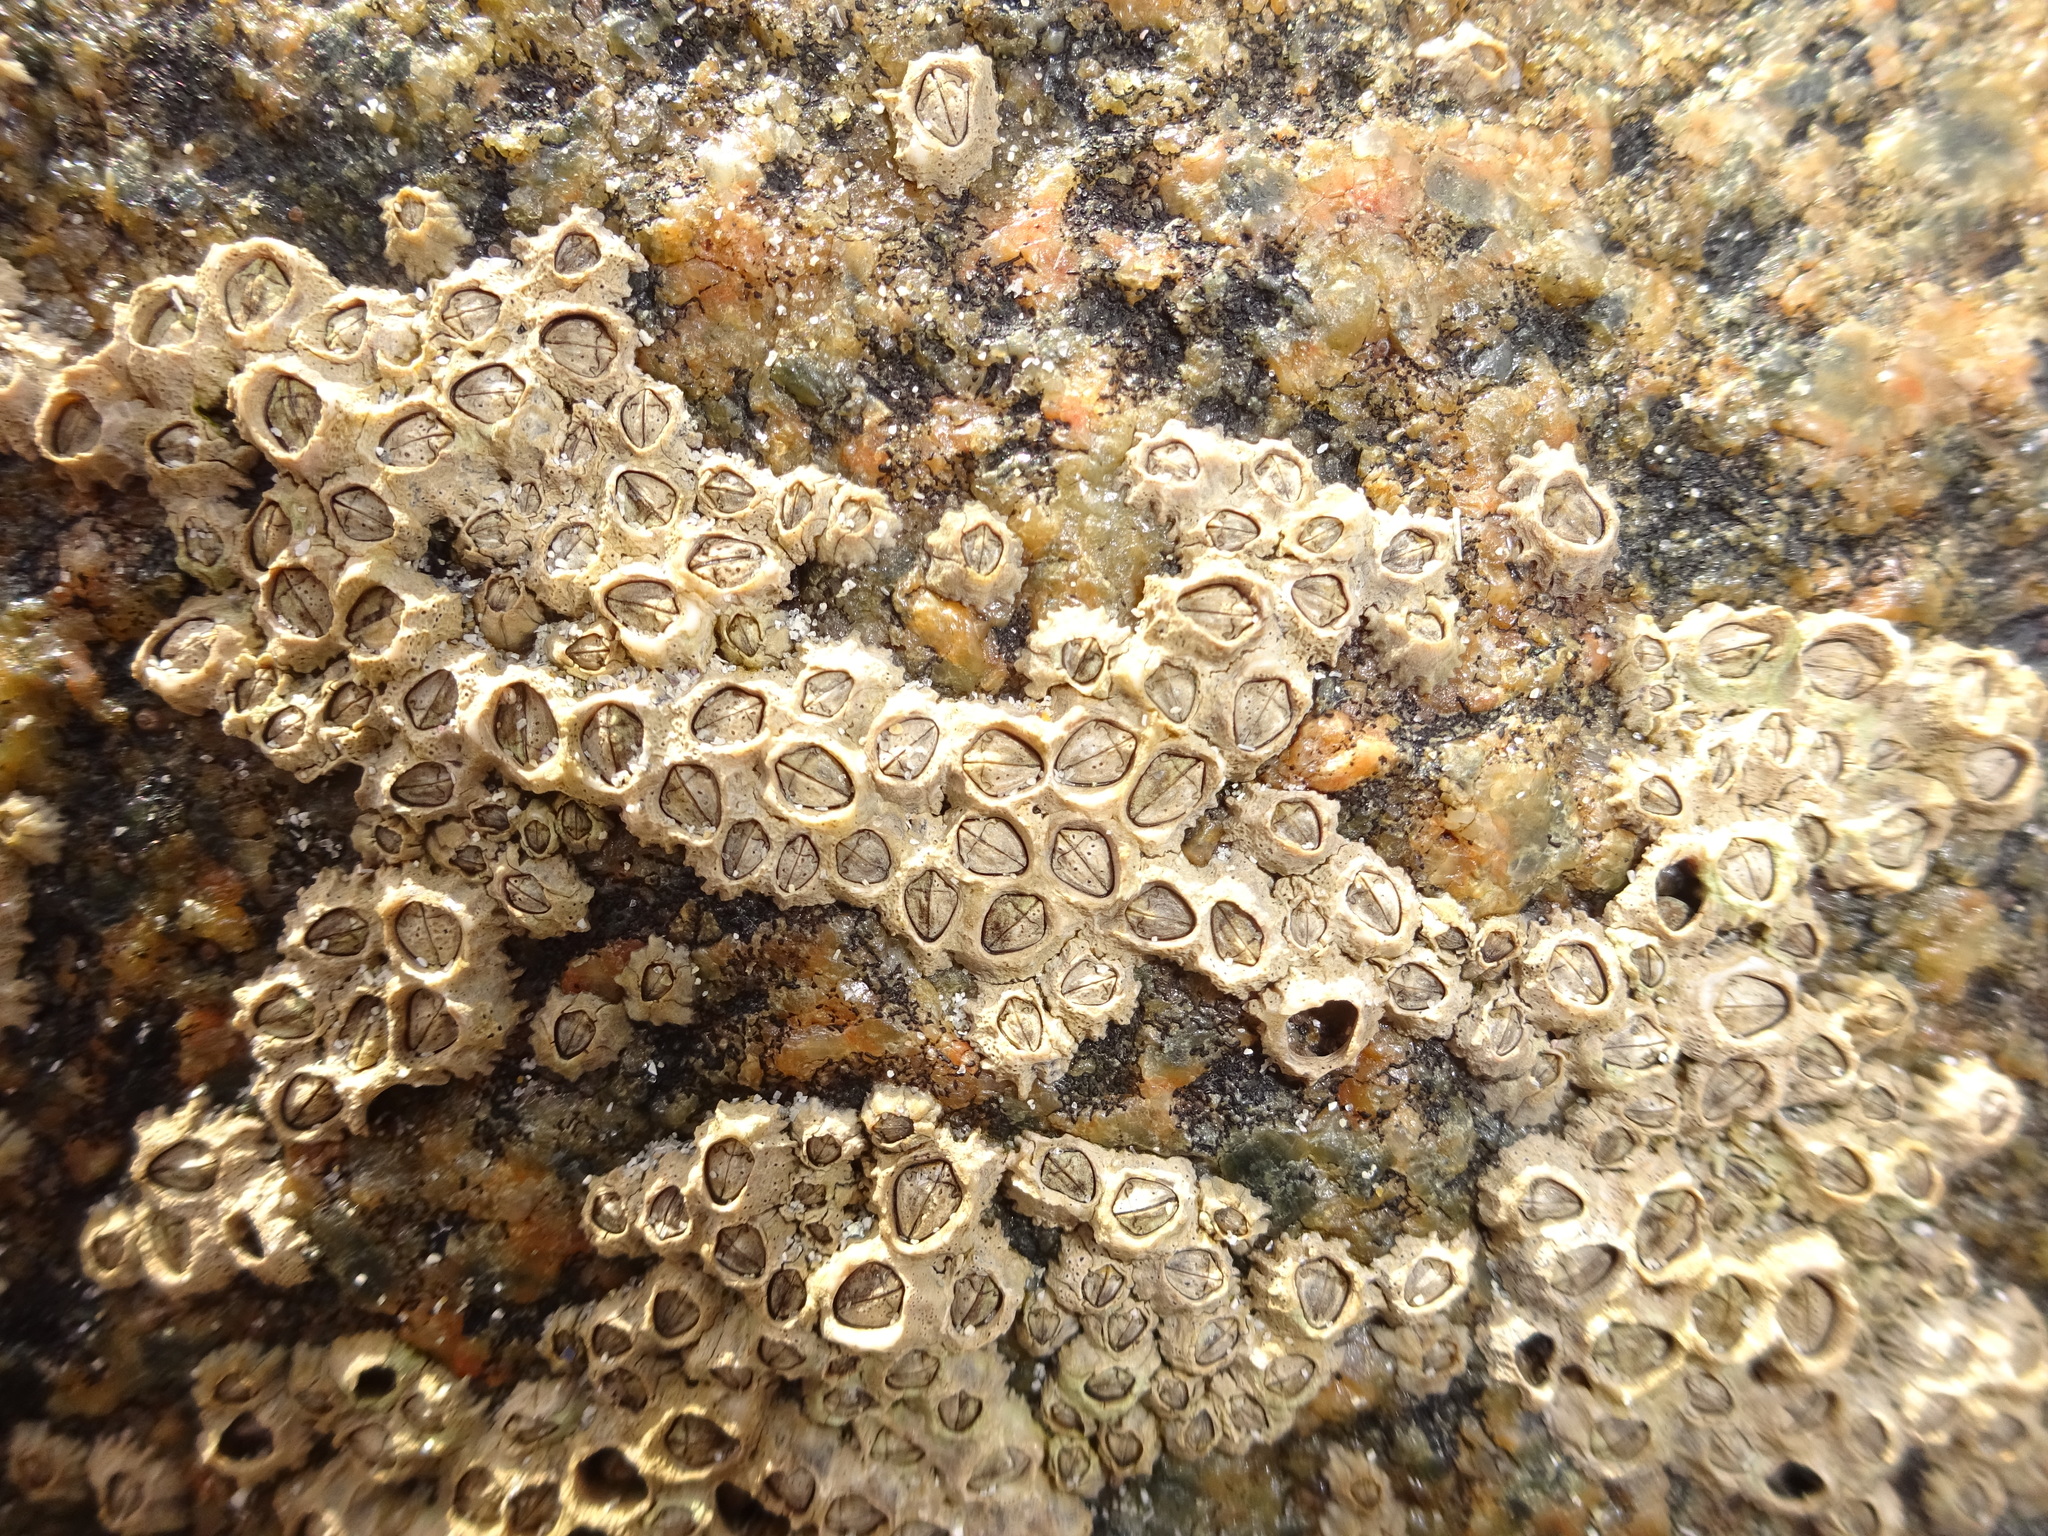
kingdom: Animalia
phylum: Arthropoda
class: Maxillopoda
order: Sessilia
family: Chthamalidae
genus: Chthamalus
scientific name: Chthamalus montagui
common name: Montagu's stellate barnacle
